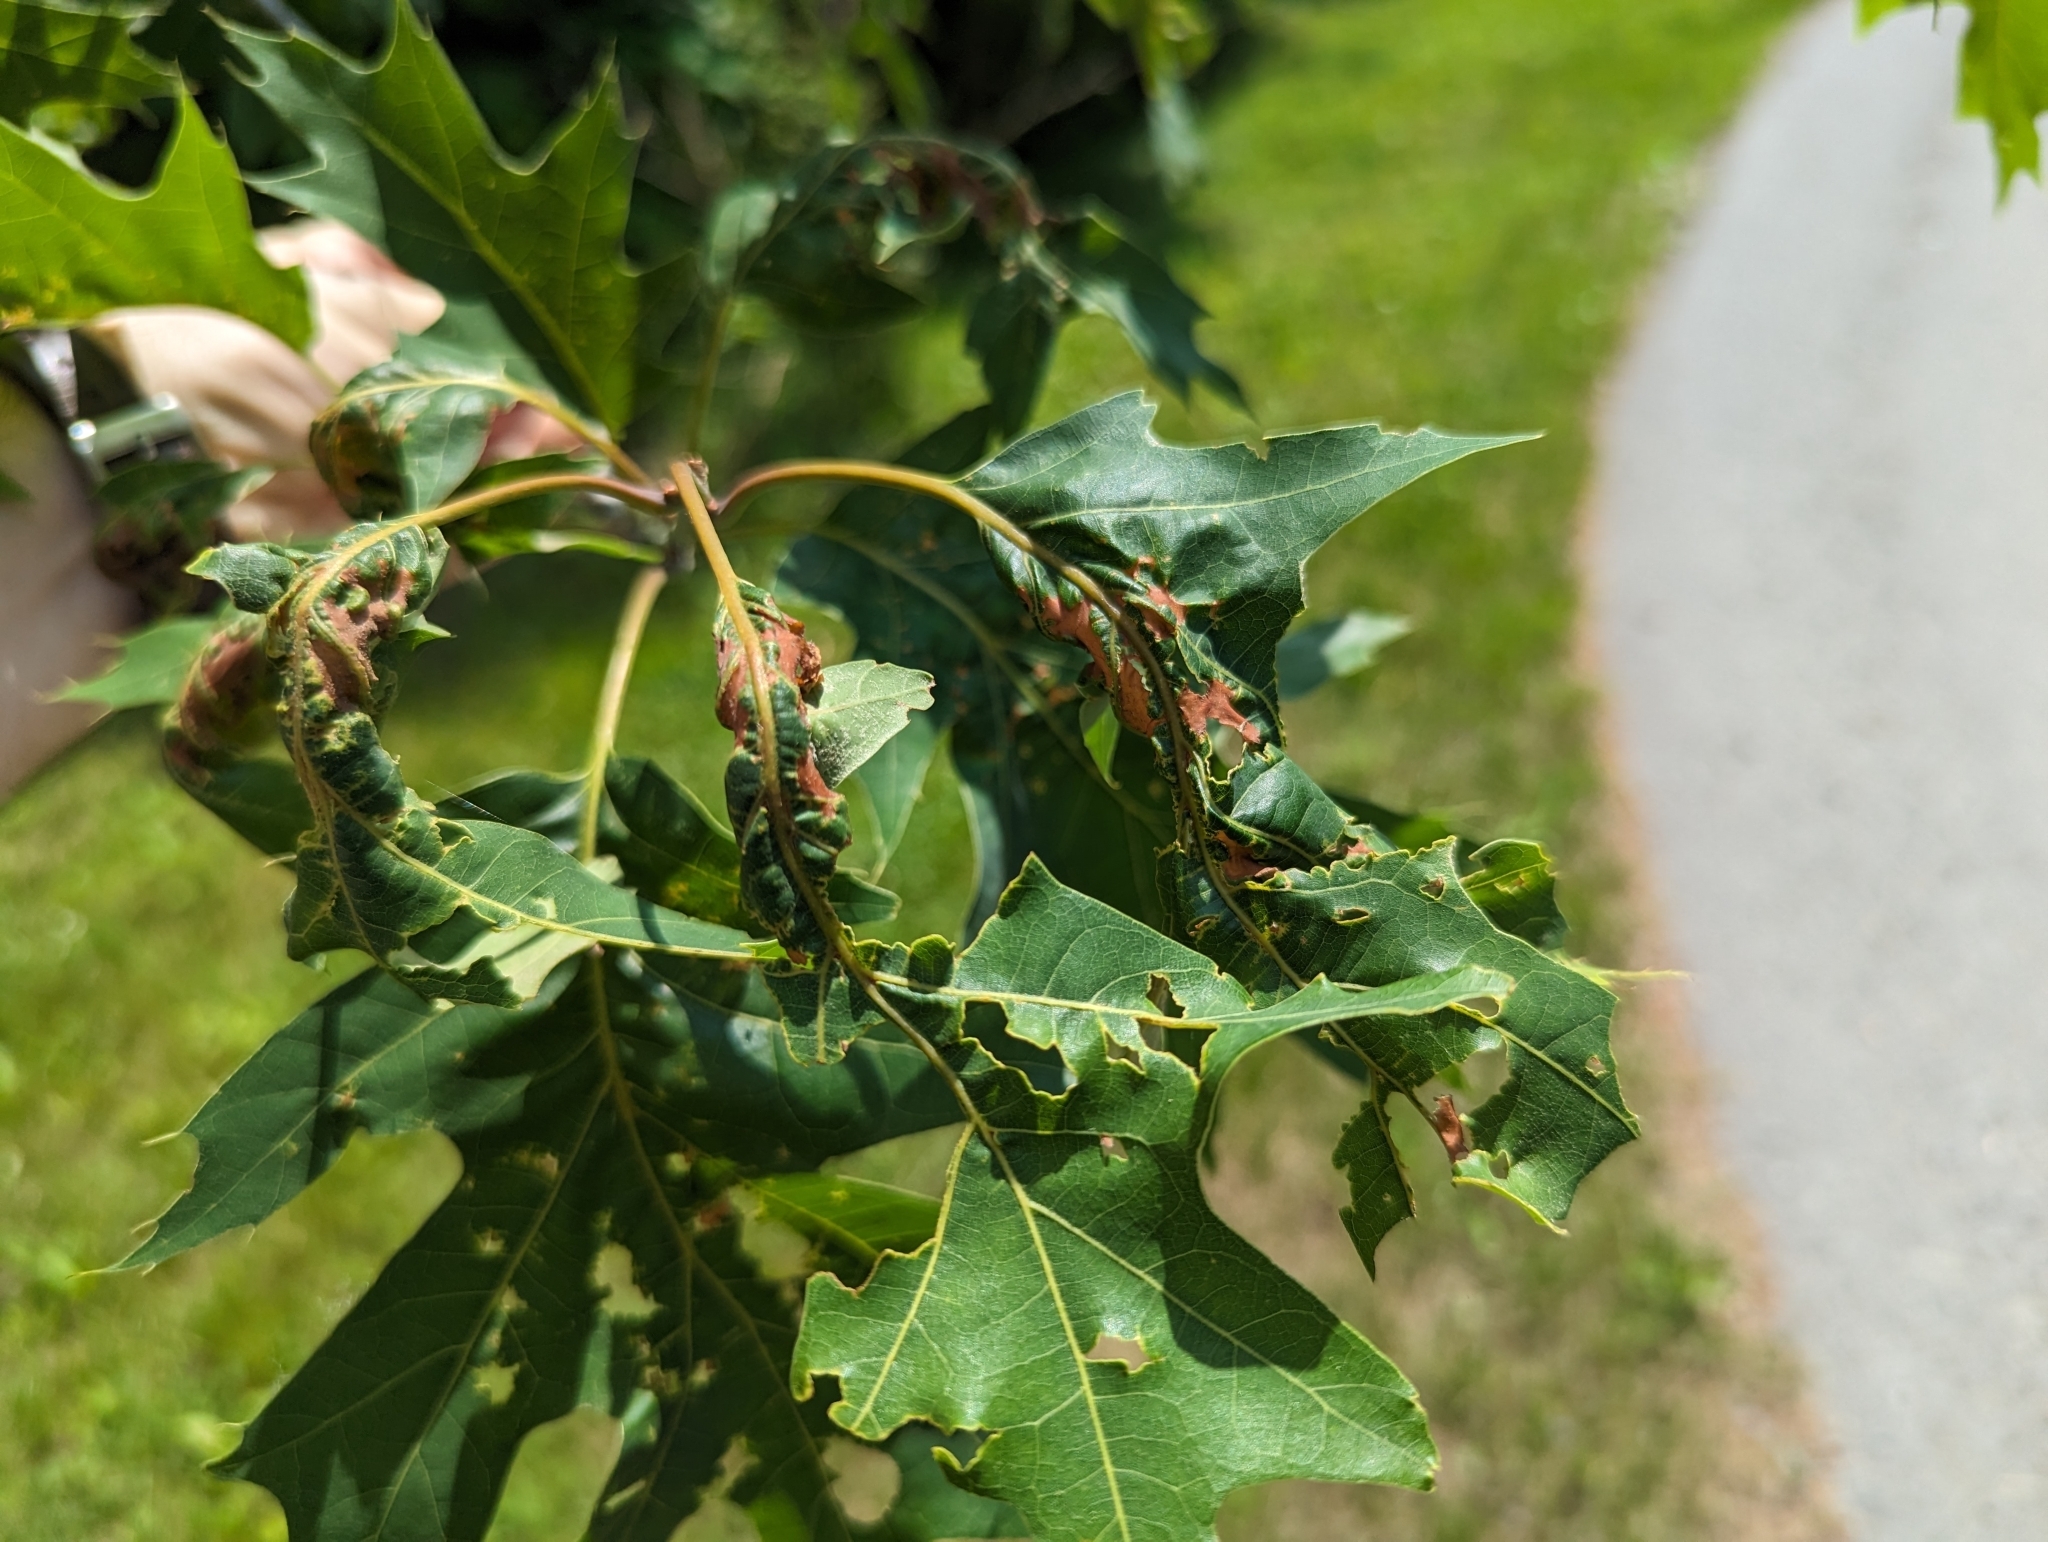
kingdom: Animalia
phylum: Arthropoda
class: Insecta
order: Lepidoptera
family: Erebidae
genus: Lymantria
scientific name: Lymantria dispar
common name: Gypsy moth
